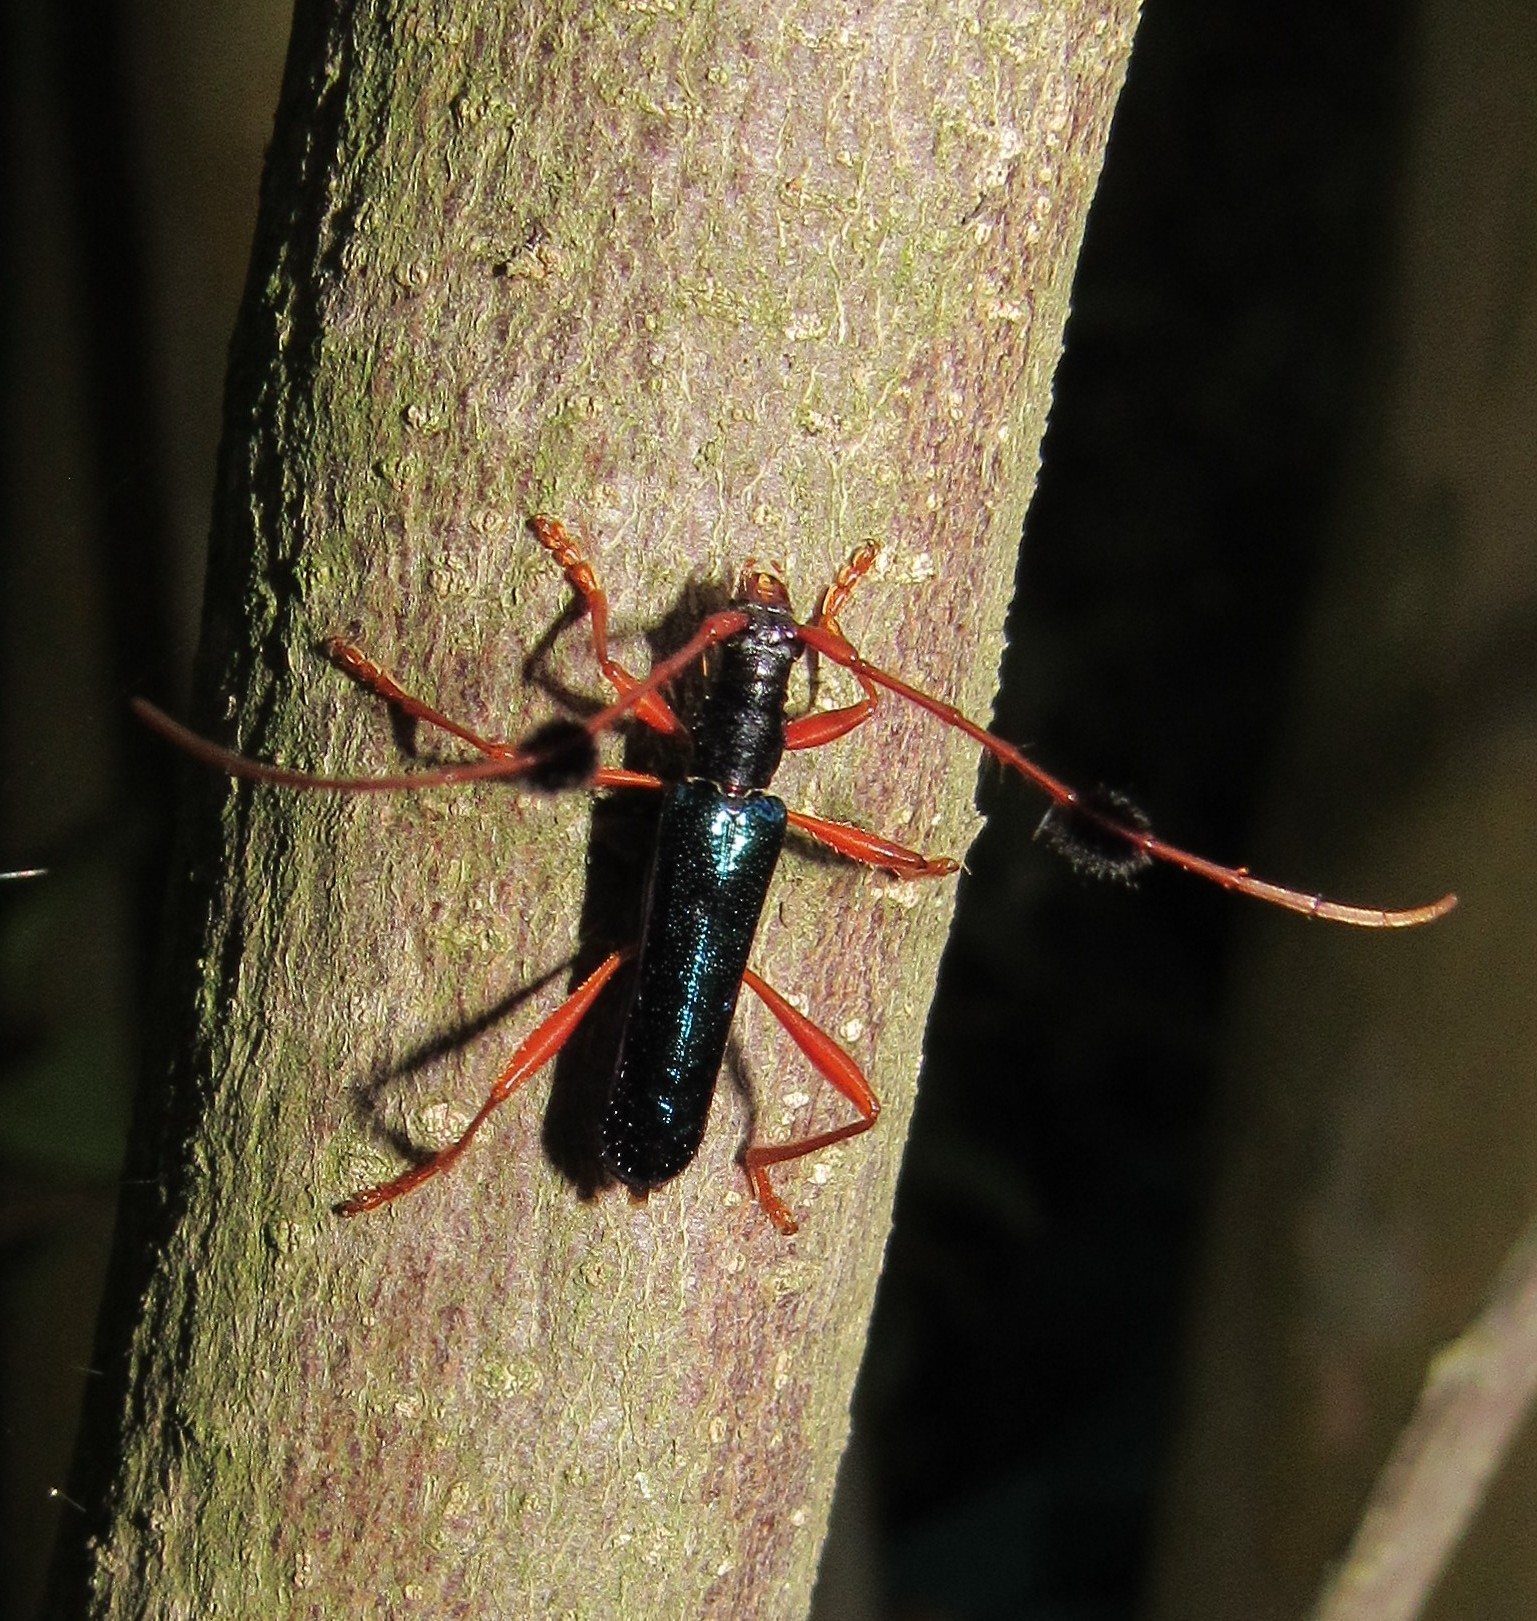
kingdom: Animalia
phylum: Arthropoda
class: Insecta
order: Coleoptera
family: Cerambycidae
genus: Compsocerus
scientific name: Compsocerus chevrolati
